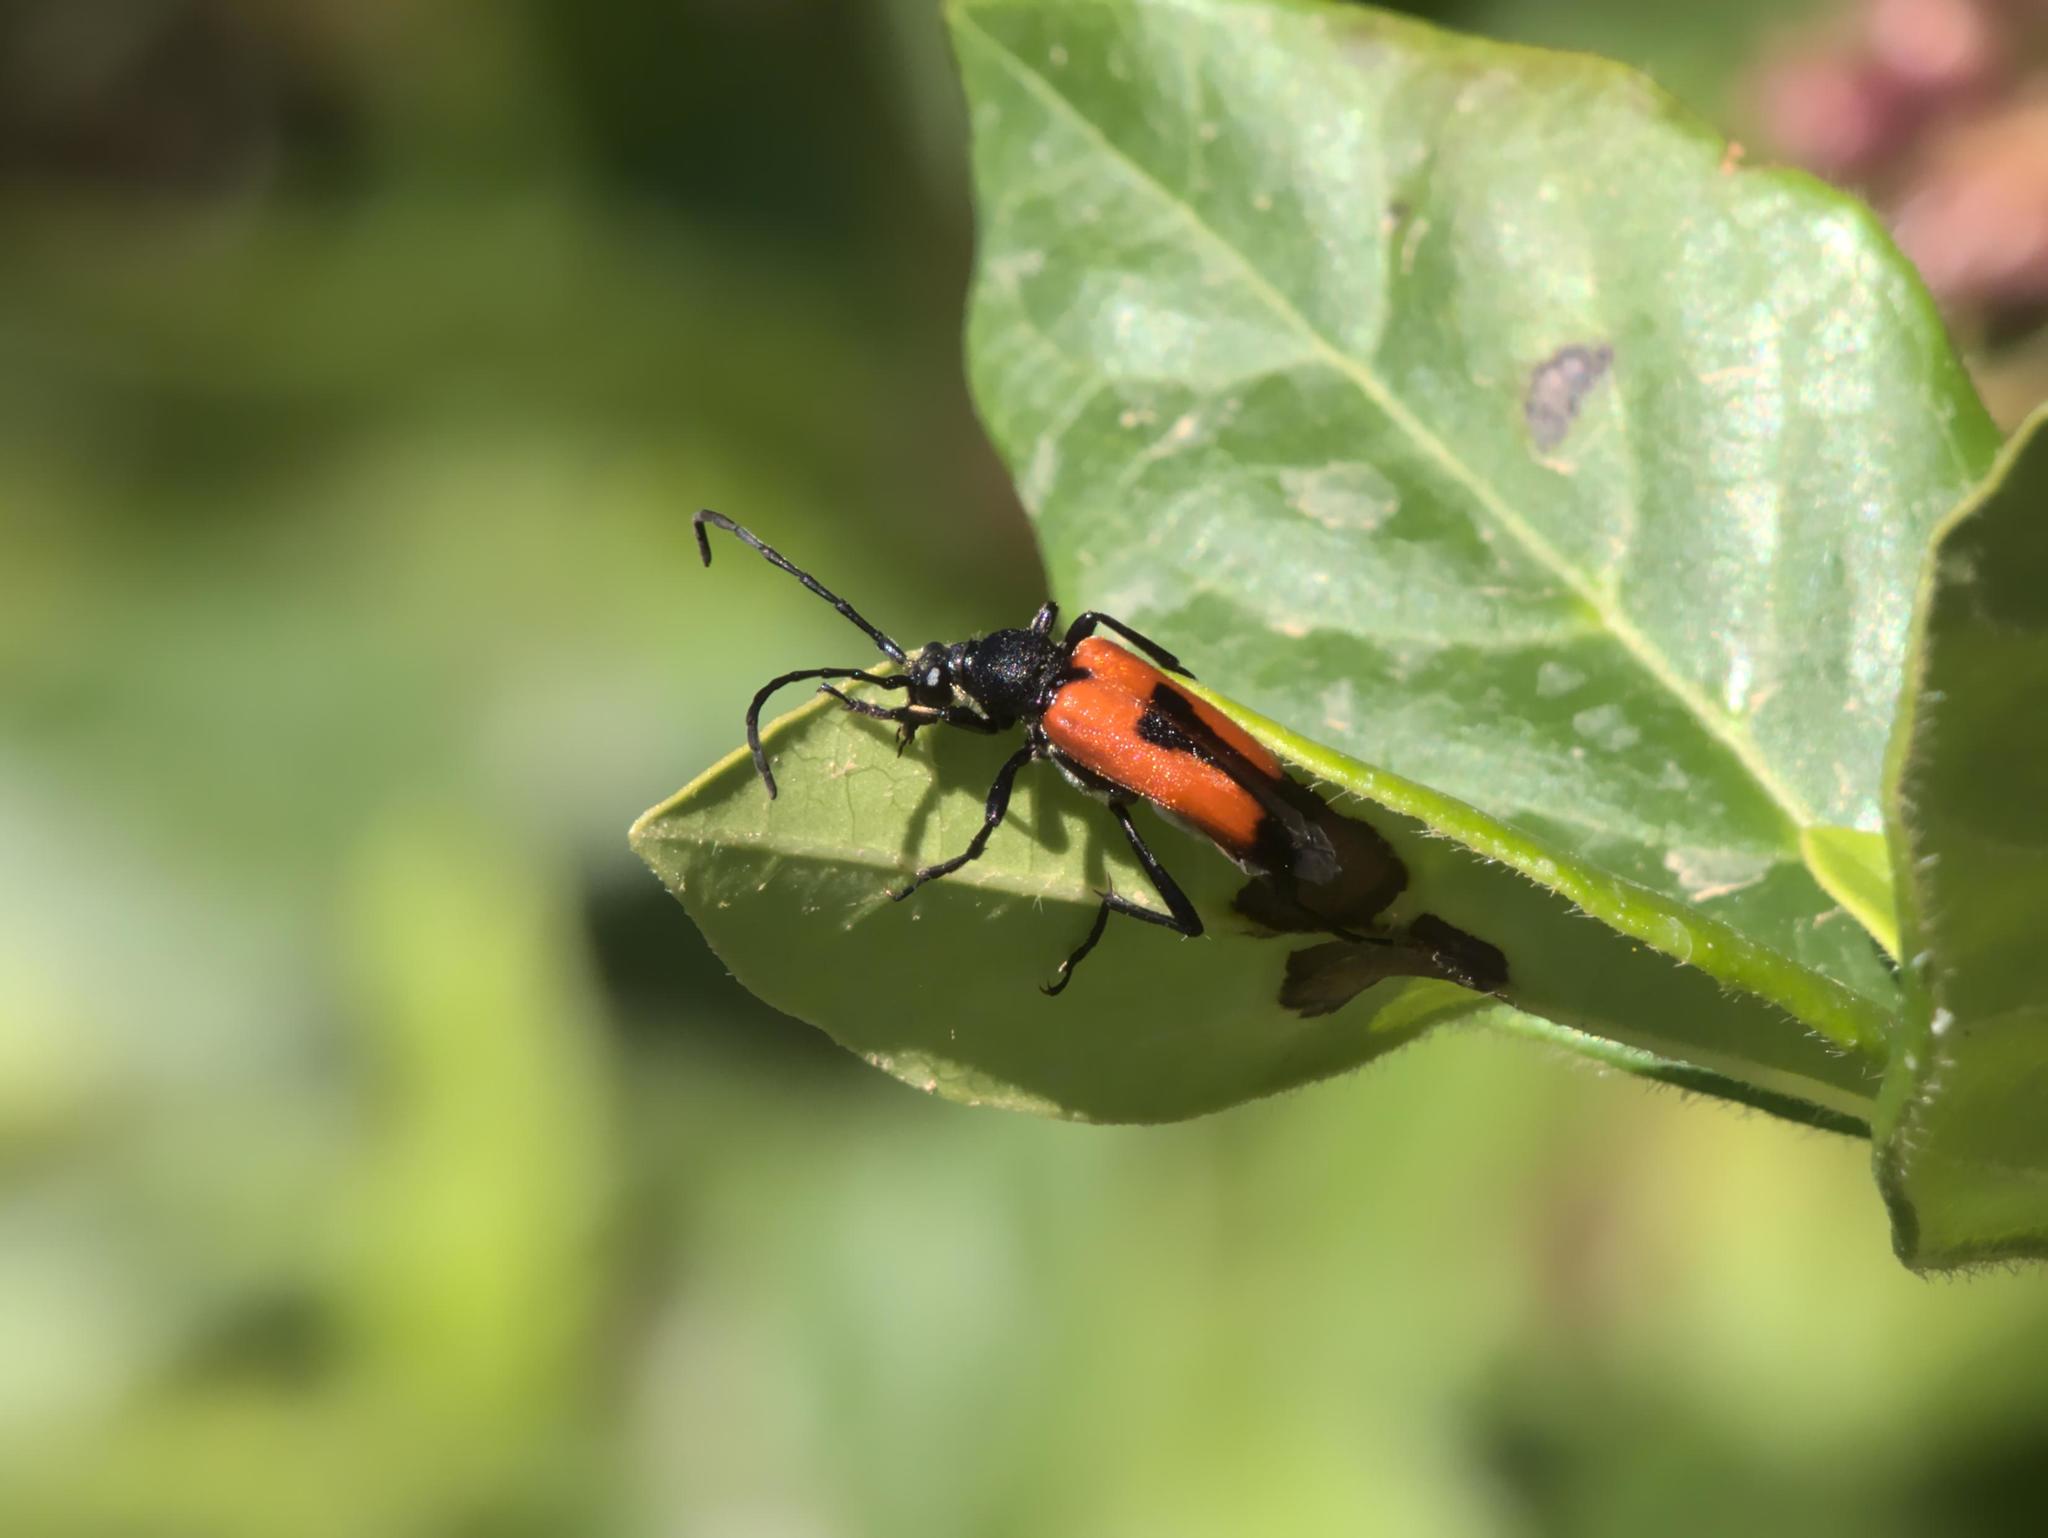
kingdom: Animalia
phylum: Arthropoda
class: Insecta
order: Coleoptera
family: Cerambycidae
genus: Stictoleptura
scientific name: Stictoleptura cordigera
